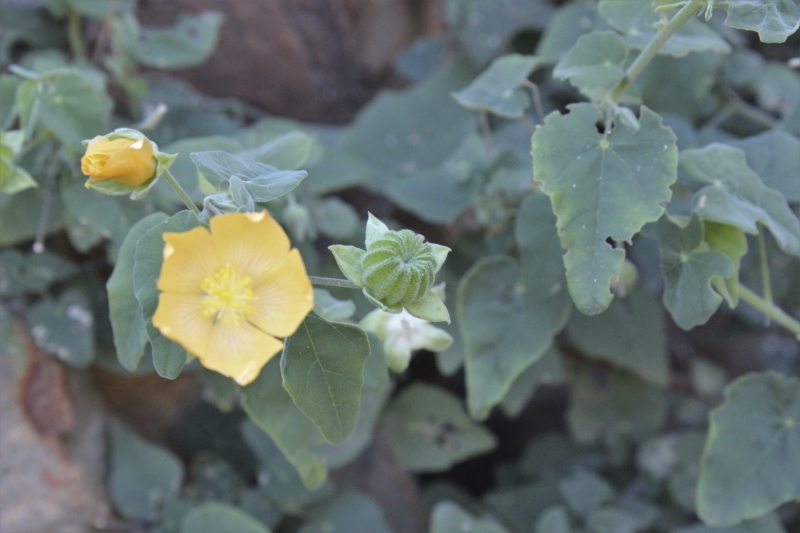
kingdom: Plantae
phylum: Tracheophyta
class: Magnoliopsida
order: Malvales
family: Malvaceae
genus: Abutilon
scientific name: Abutilon sonneratianum
